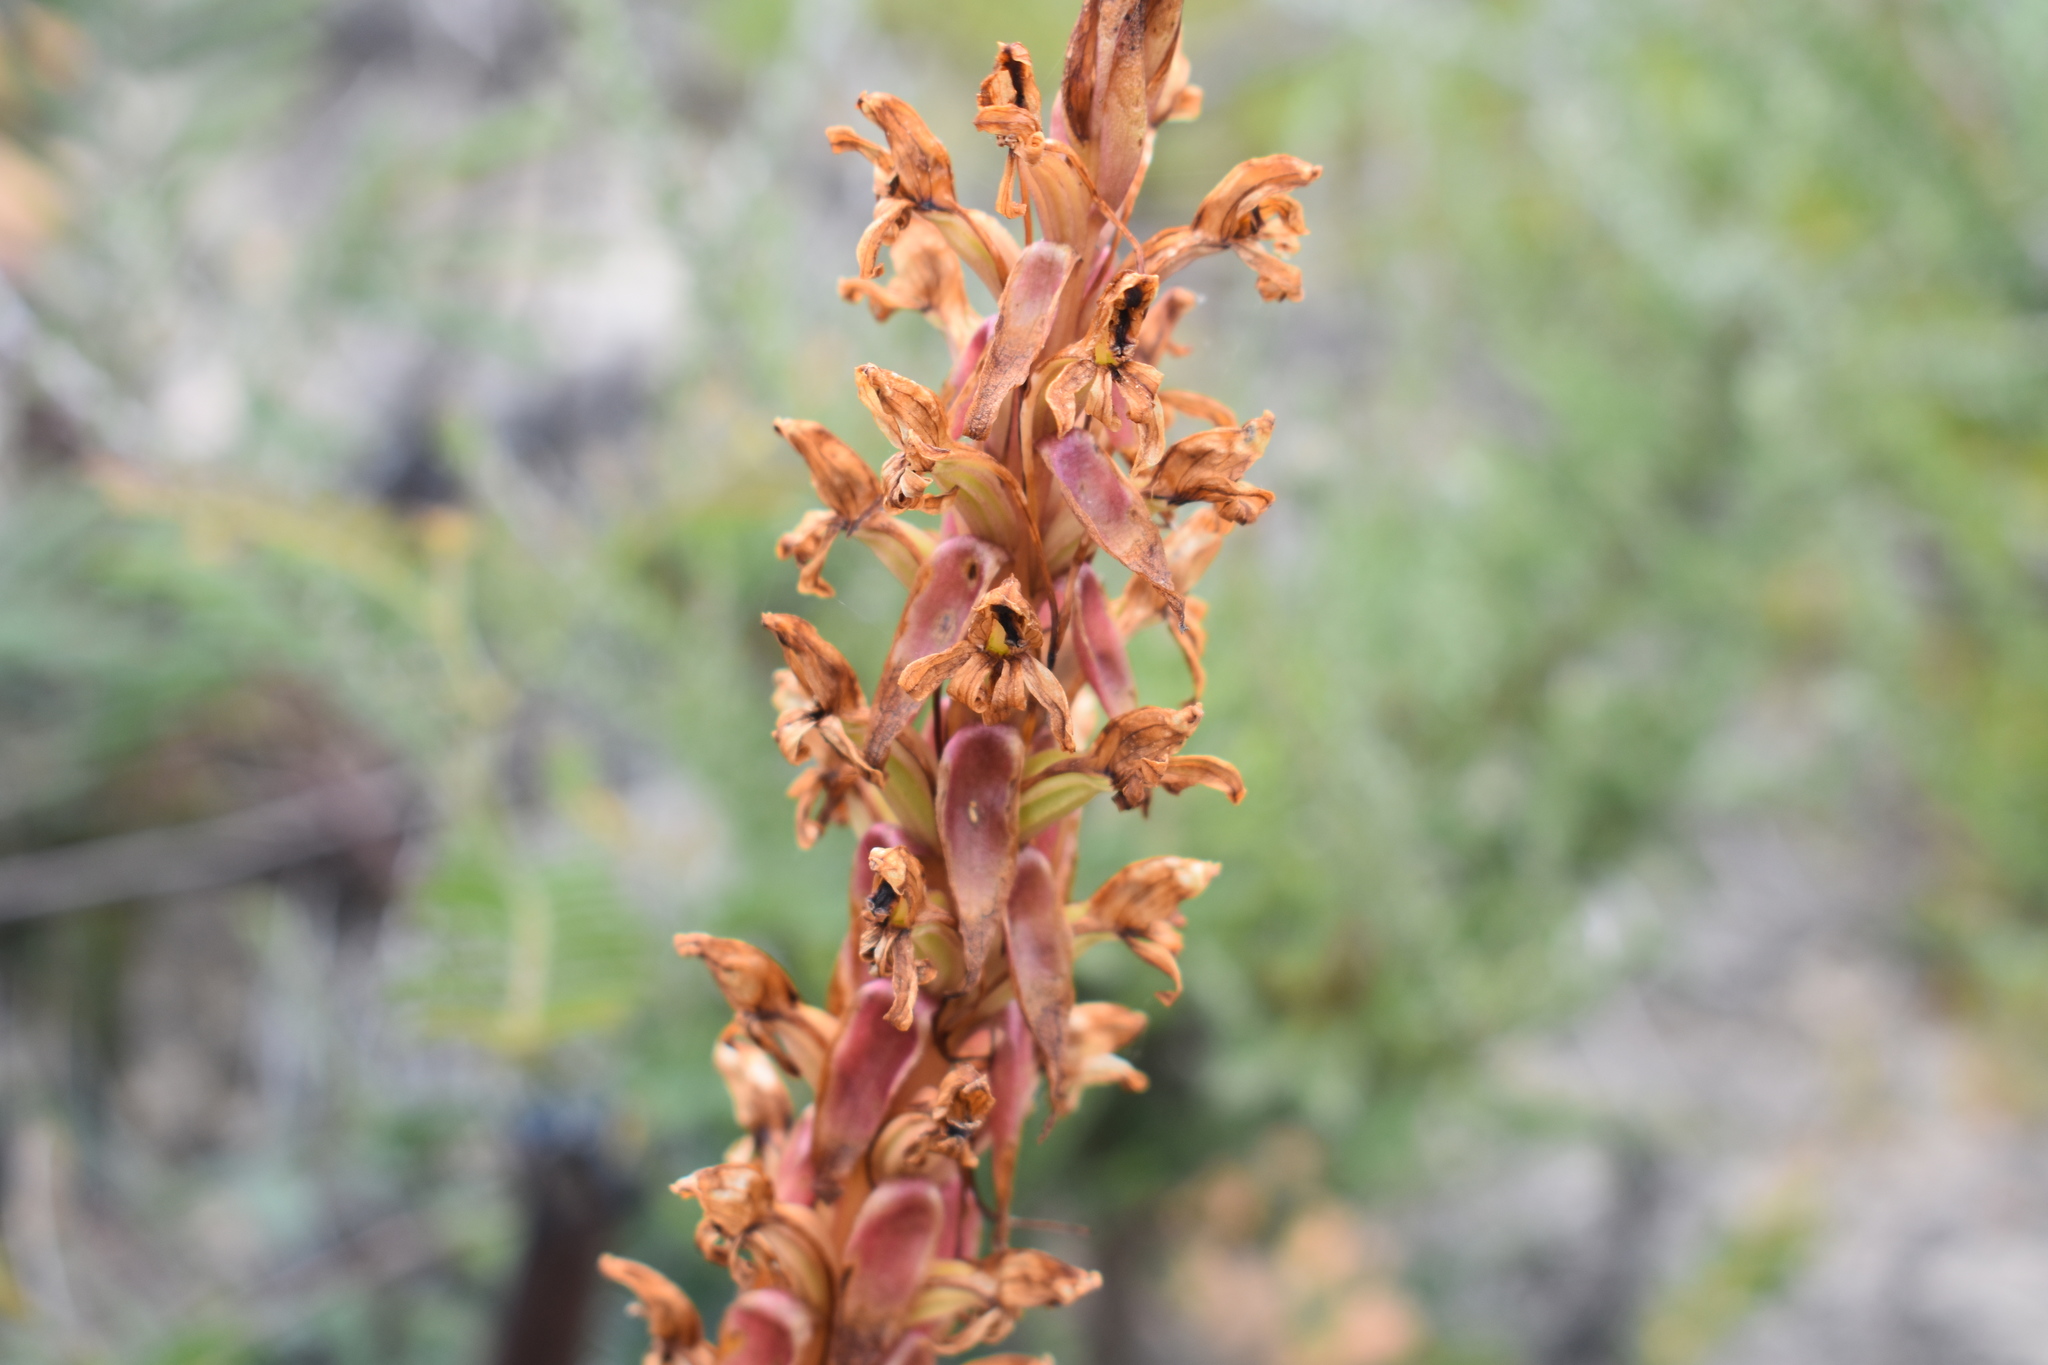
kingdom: Plantae
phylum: Tracheophyta
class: Liliopsida
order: Asparagales
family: Orchidaceae
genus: Satyrium
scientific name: Satyrium erectum
